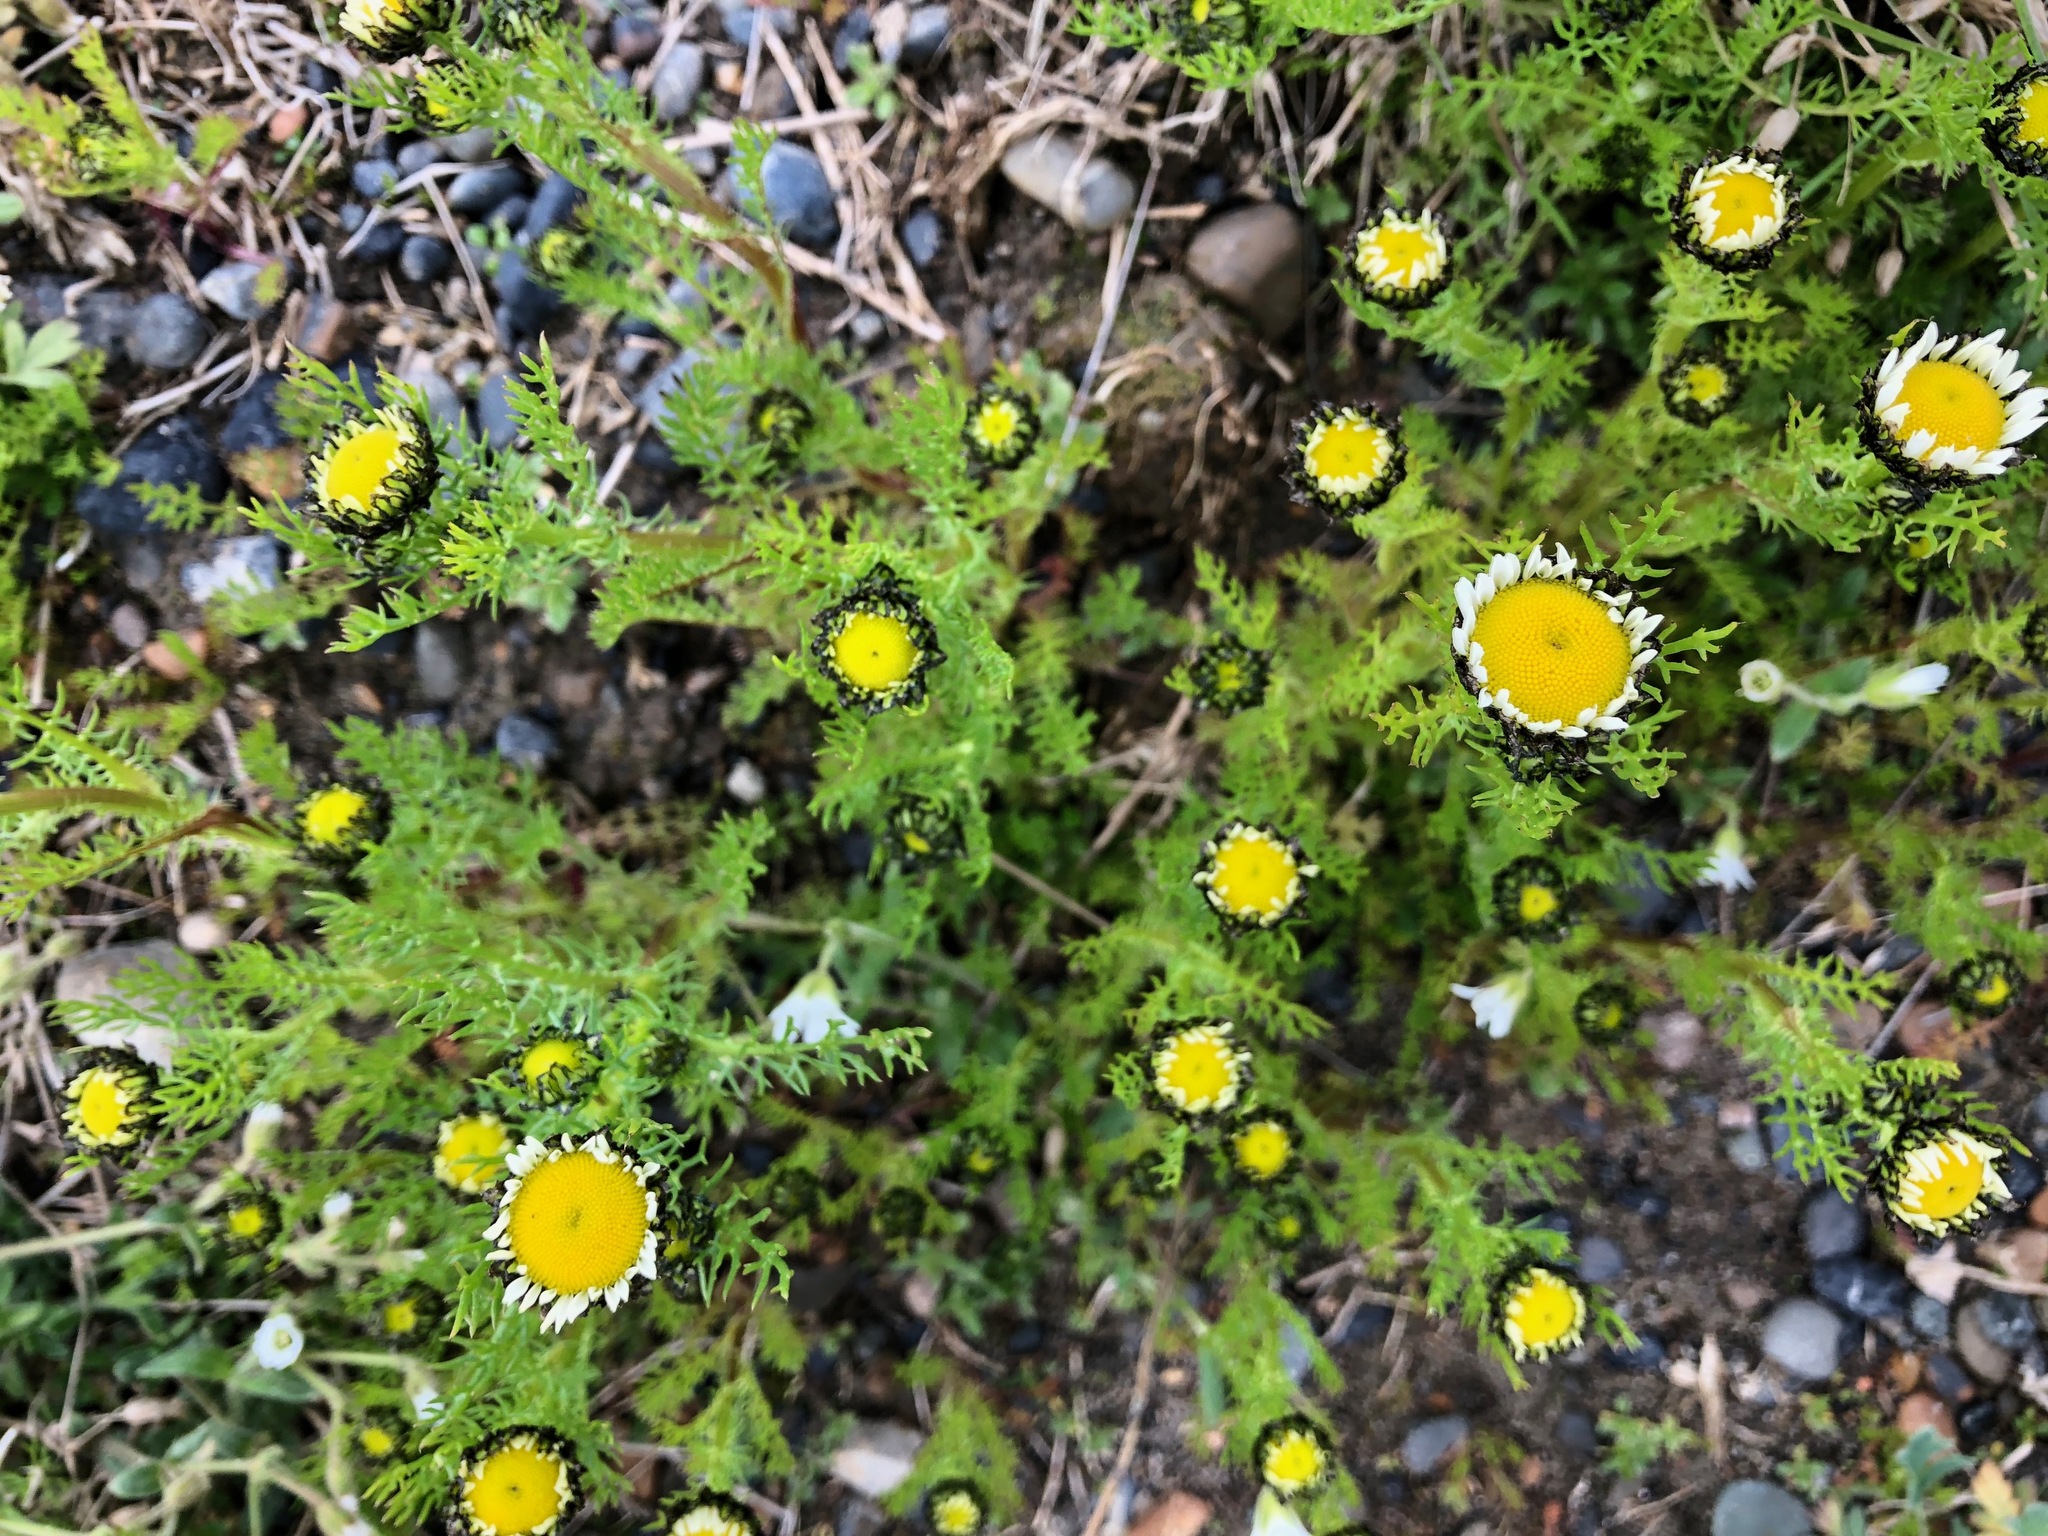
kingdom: Plantae
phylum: Tracheophyta
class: Magnoliopsida
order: Asterales
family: Asteraceae
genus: Tripleurospermum
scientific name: Tripleurospermum hookeri
